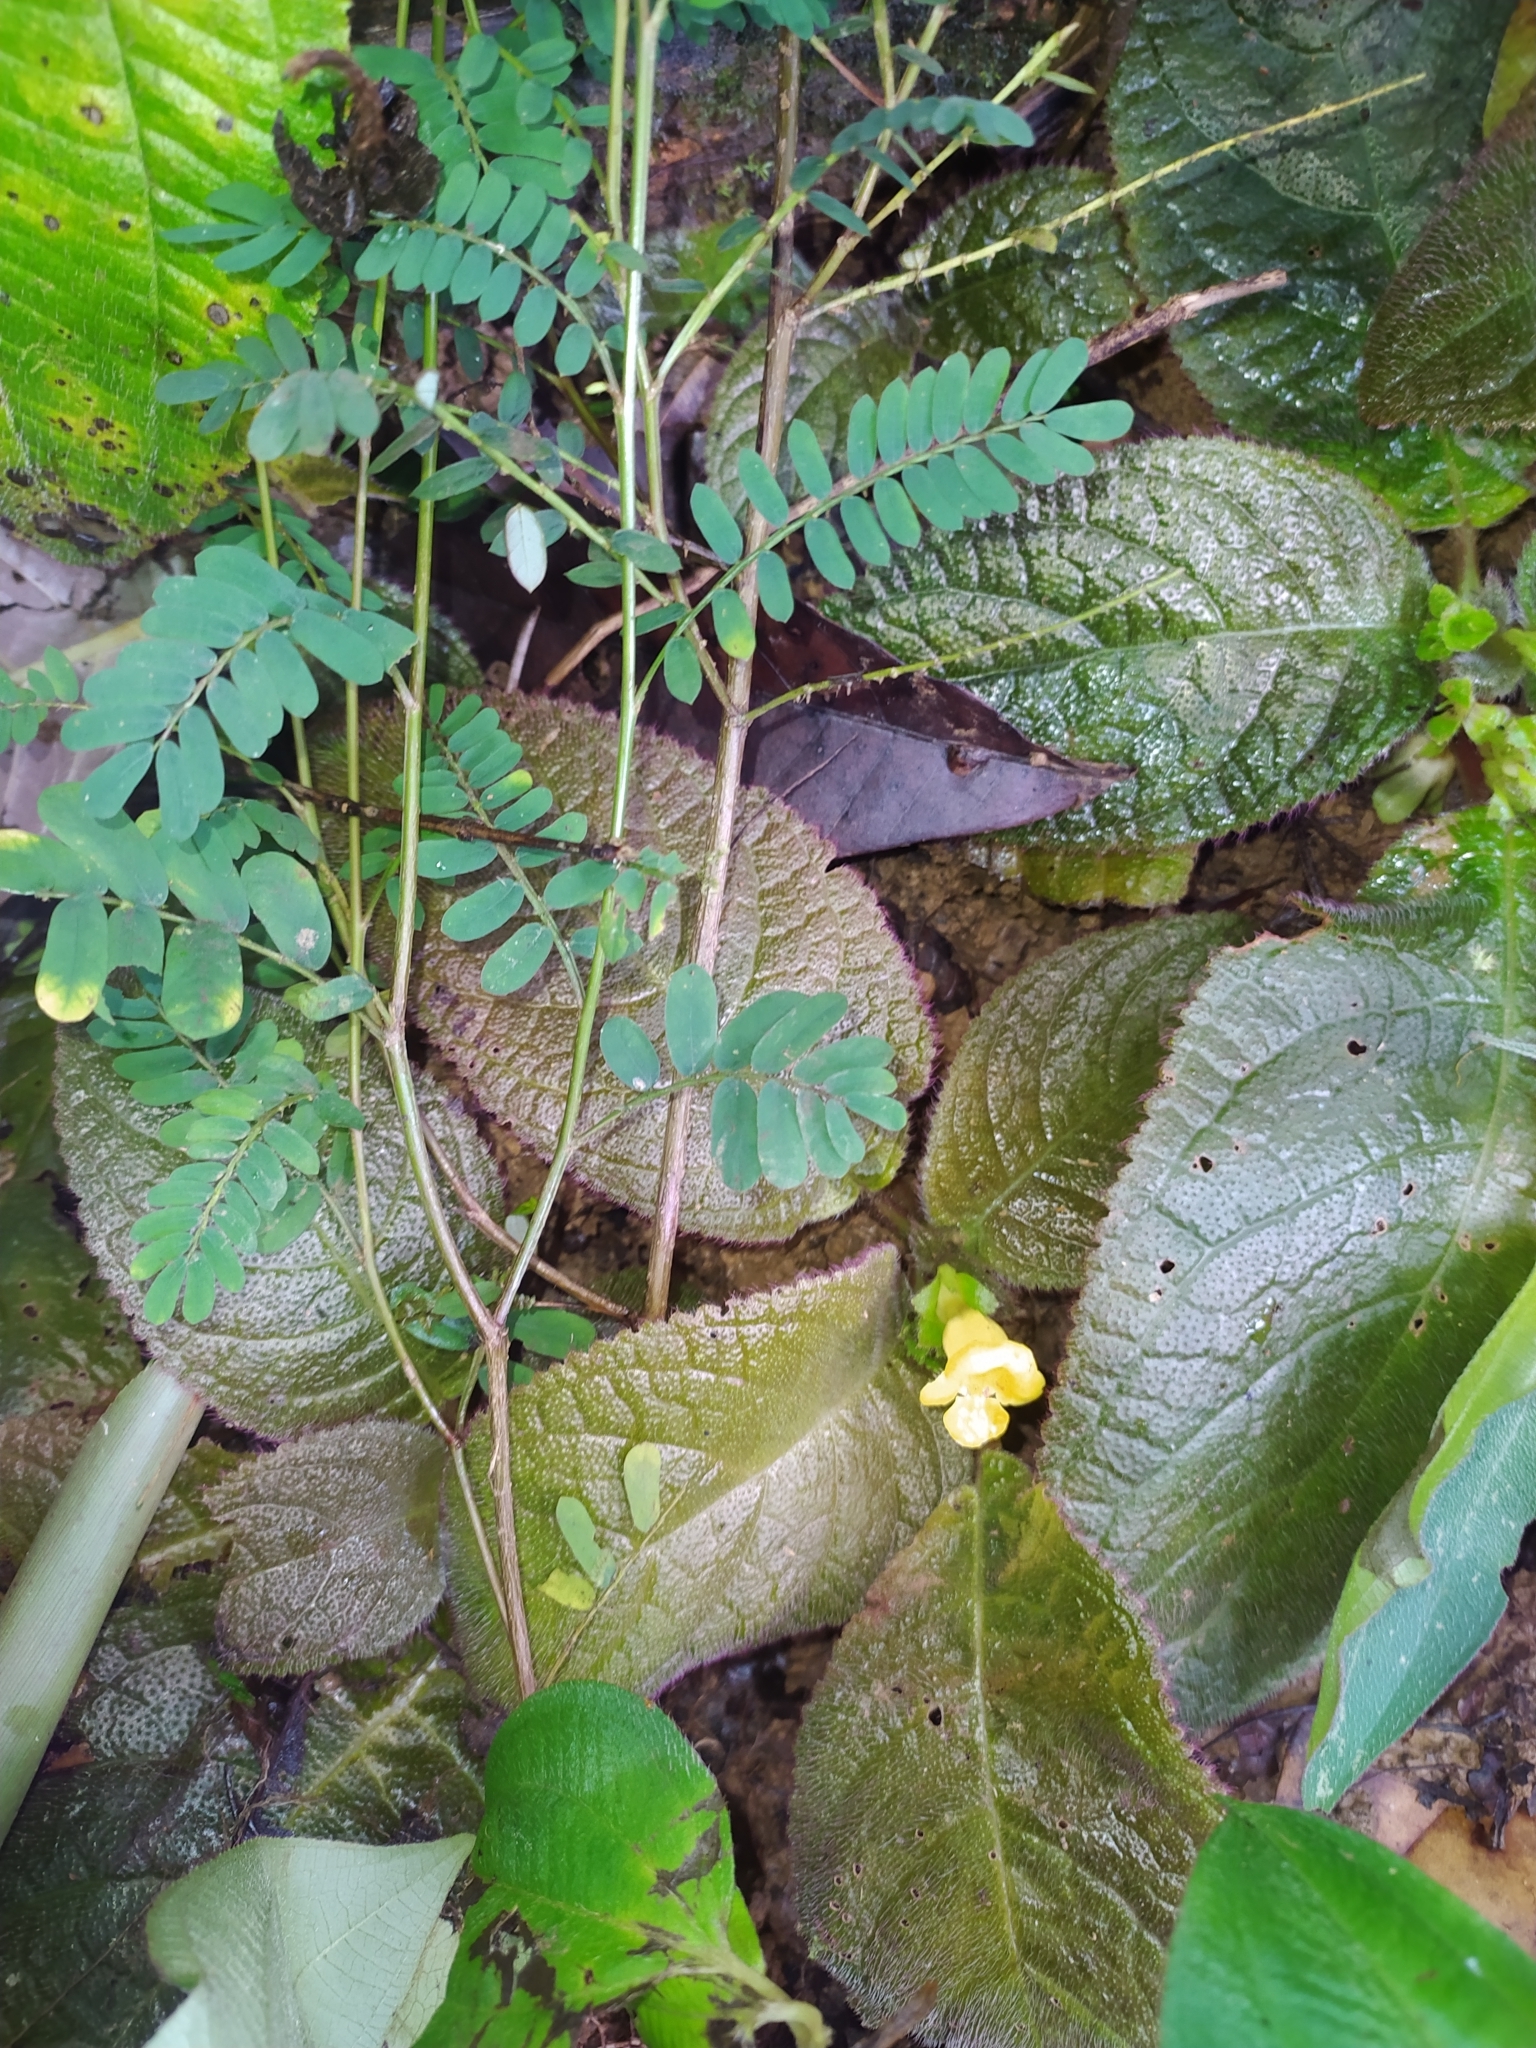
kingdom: Plantae
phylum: Tracheophyta
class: Magnoliopsida
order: Lamiales
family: Gesneriaceae
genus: Christopheria
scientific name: Christopheria xantha
